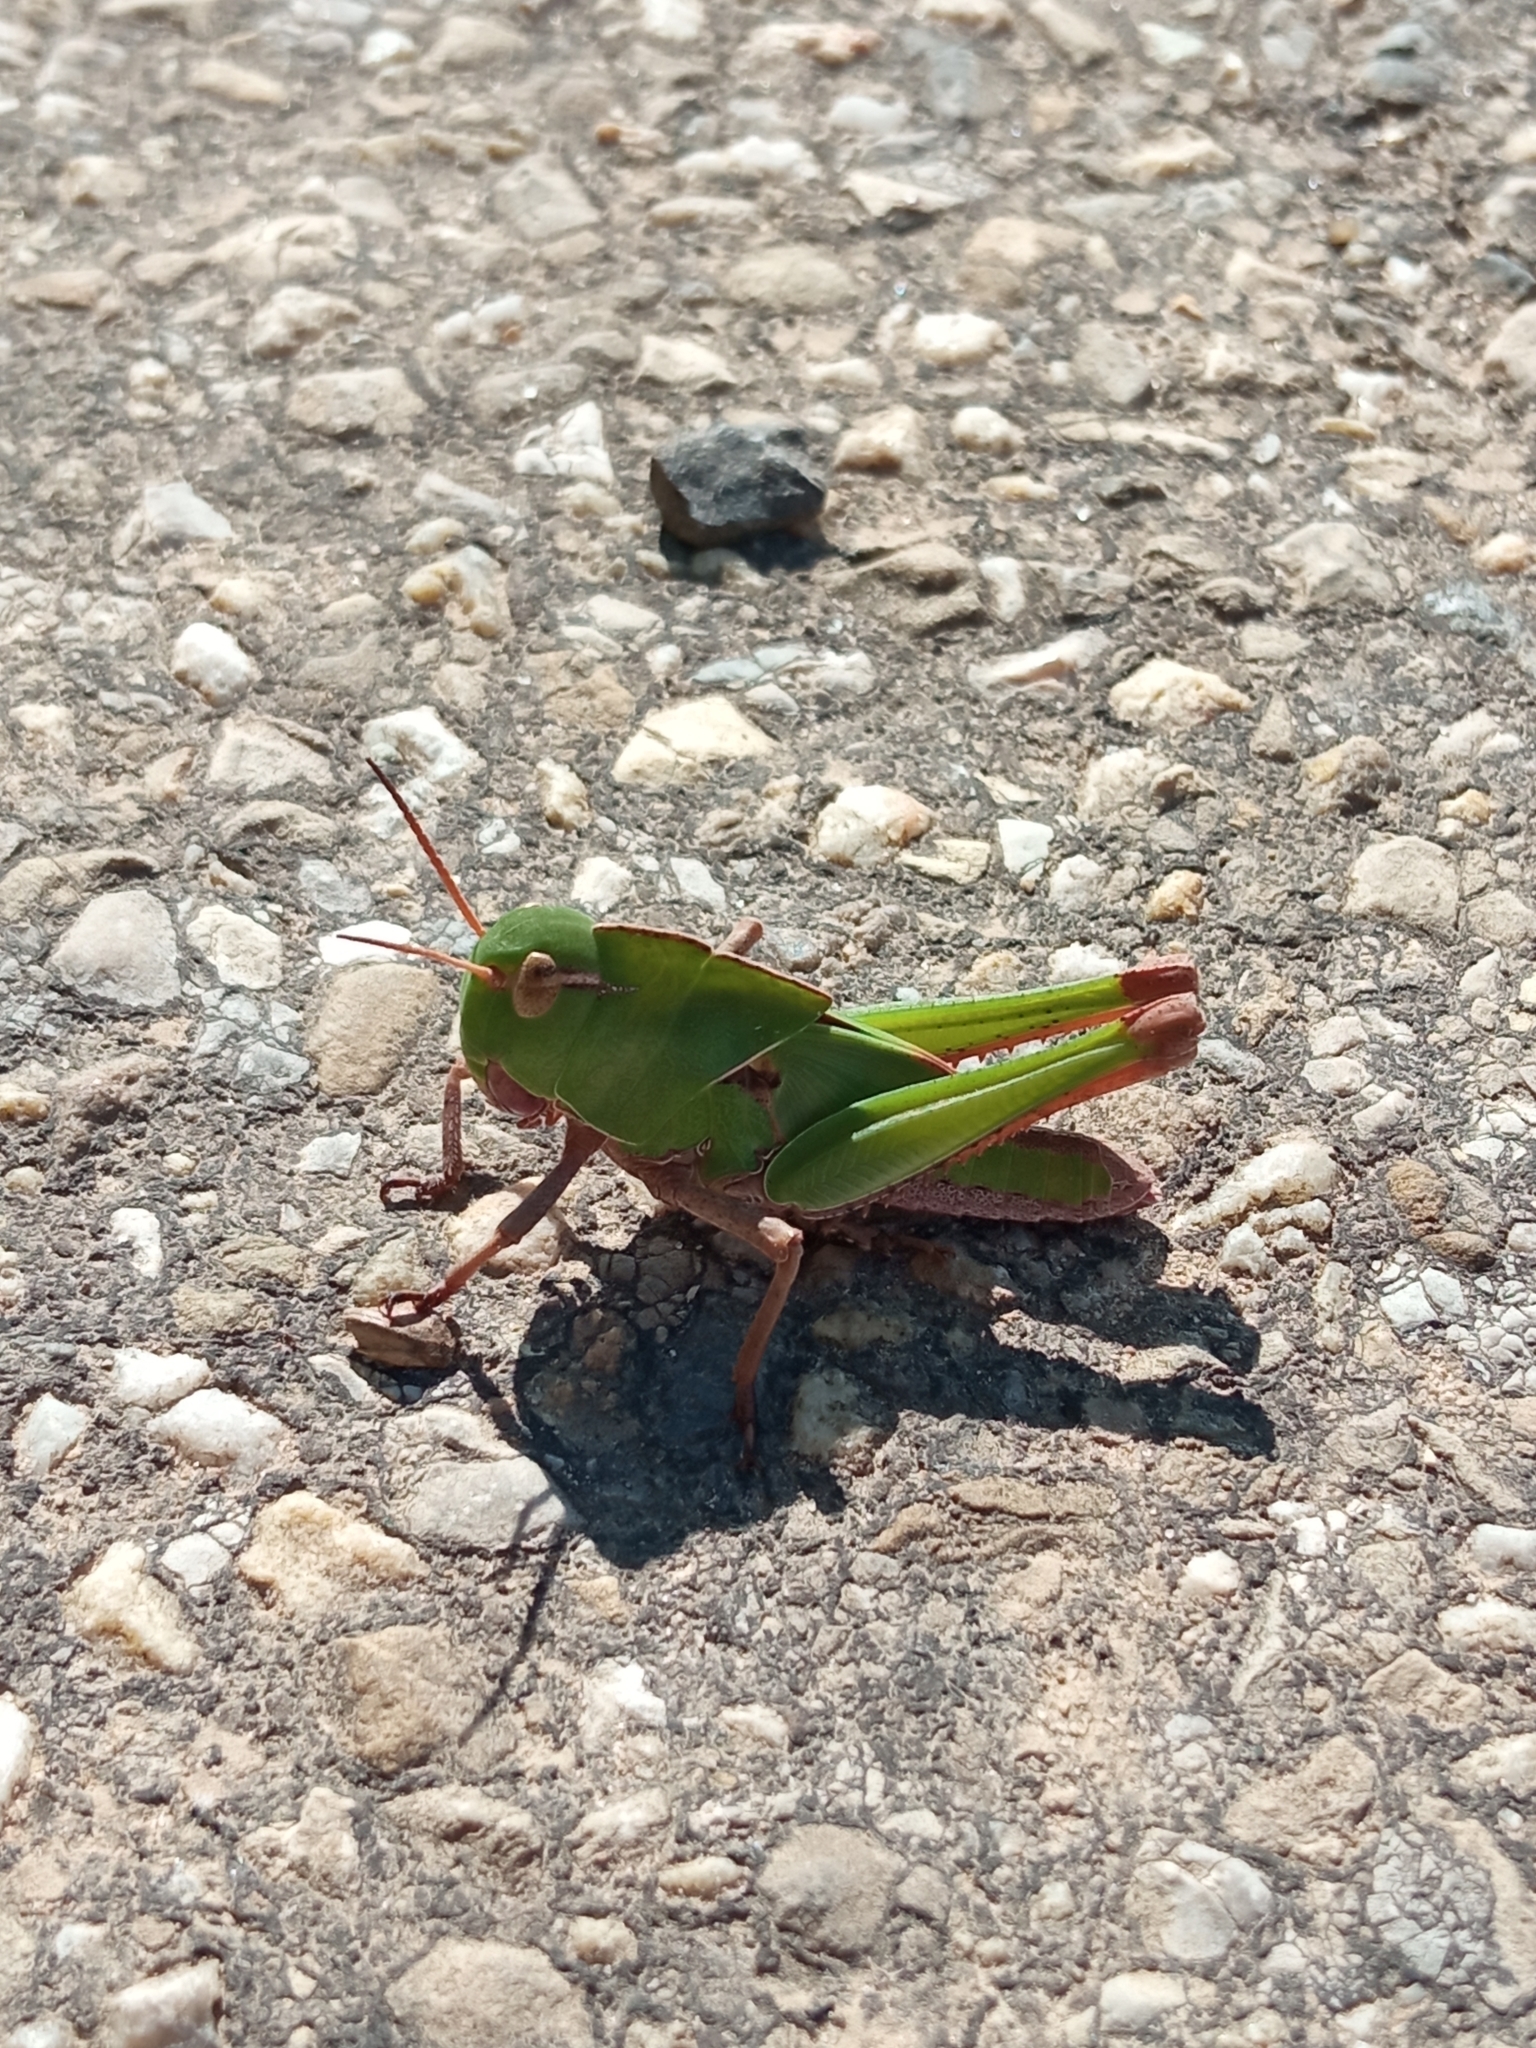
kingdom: Animalia
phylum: Arthropoda
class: Insecta
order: Orthoptera
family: Acrididae
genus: Locusta
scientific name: Locusta migratoria
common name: Migratory locust
